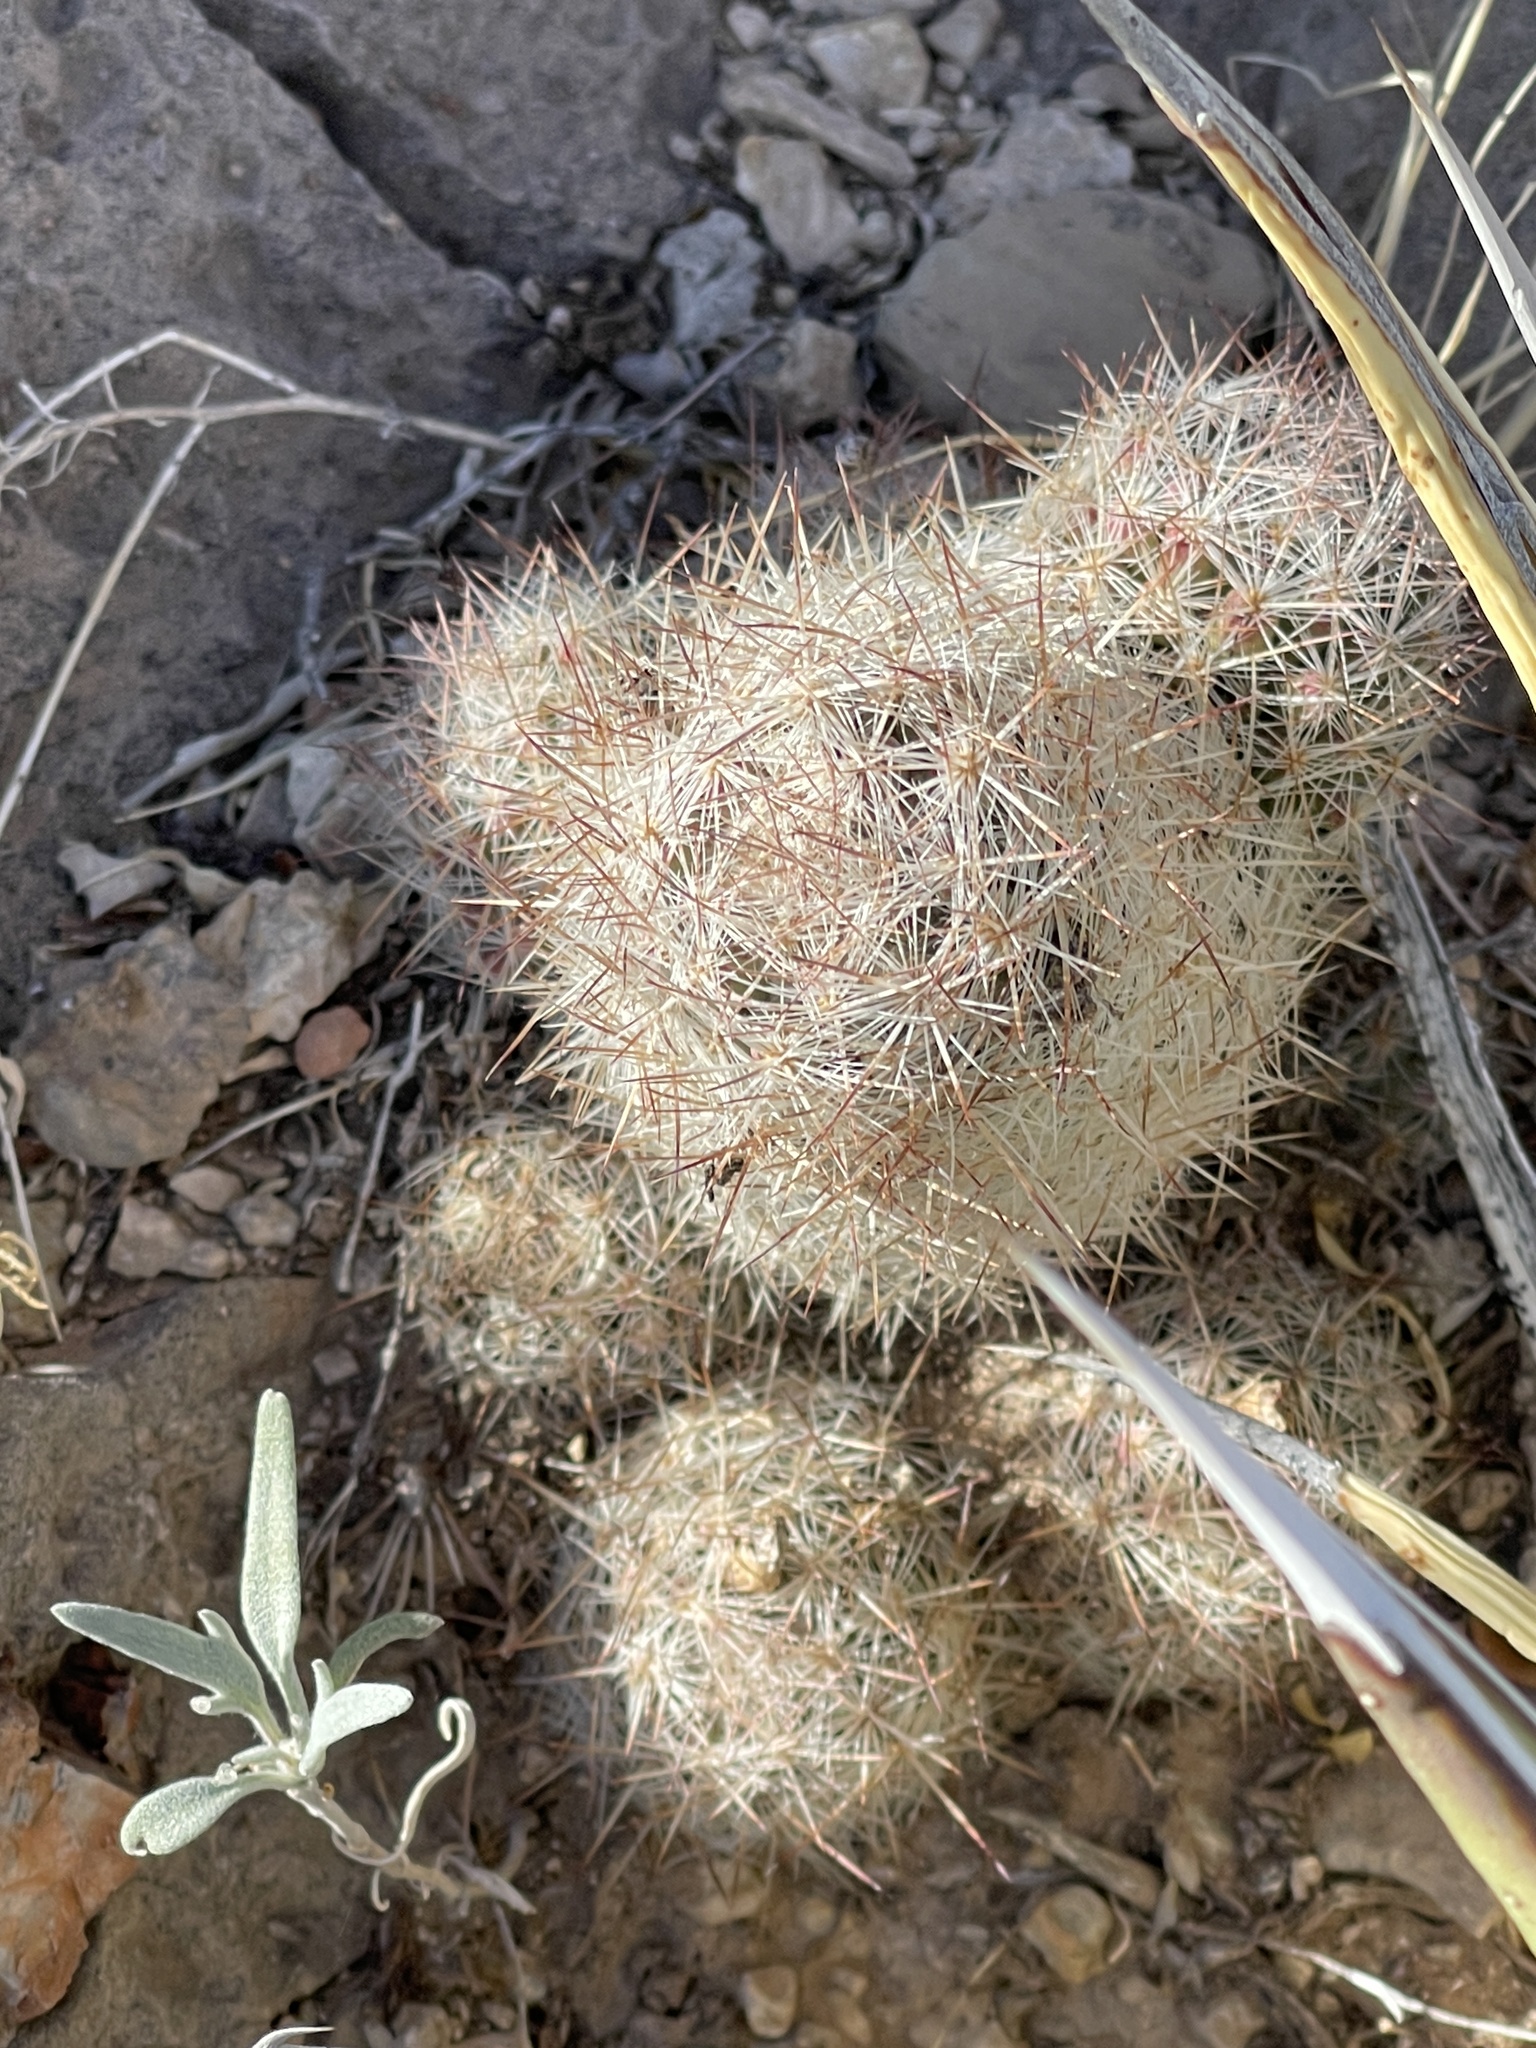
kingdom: Plantae
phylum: Tracheophyta
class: Magnoliopsida
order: Caryophyllales
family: Cactaceae
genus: Pelecyphora
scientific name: Pelecyphora tuberculosa
